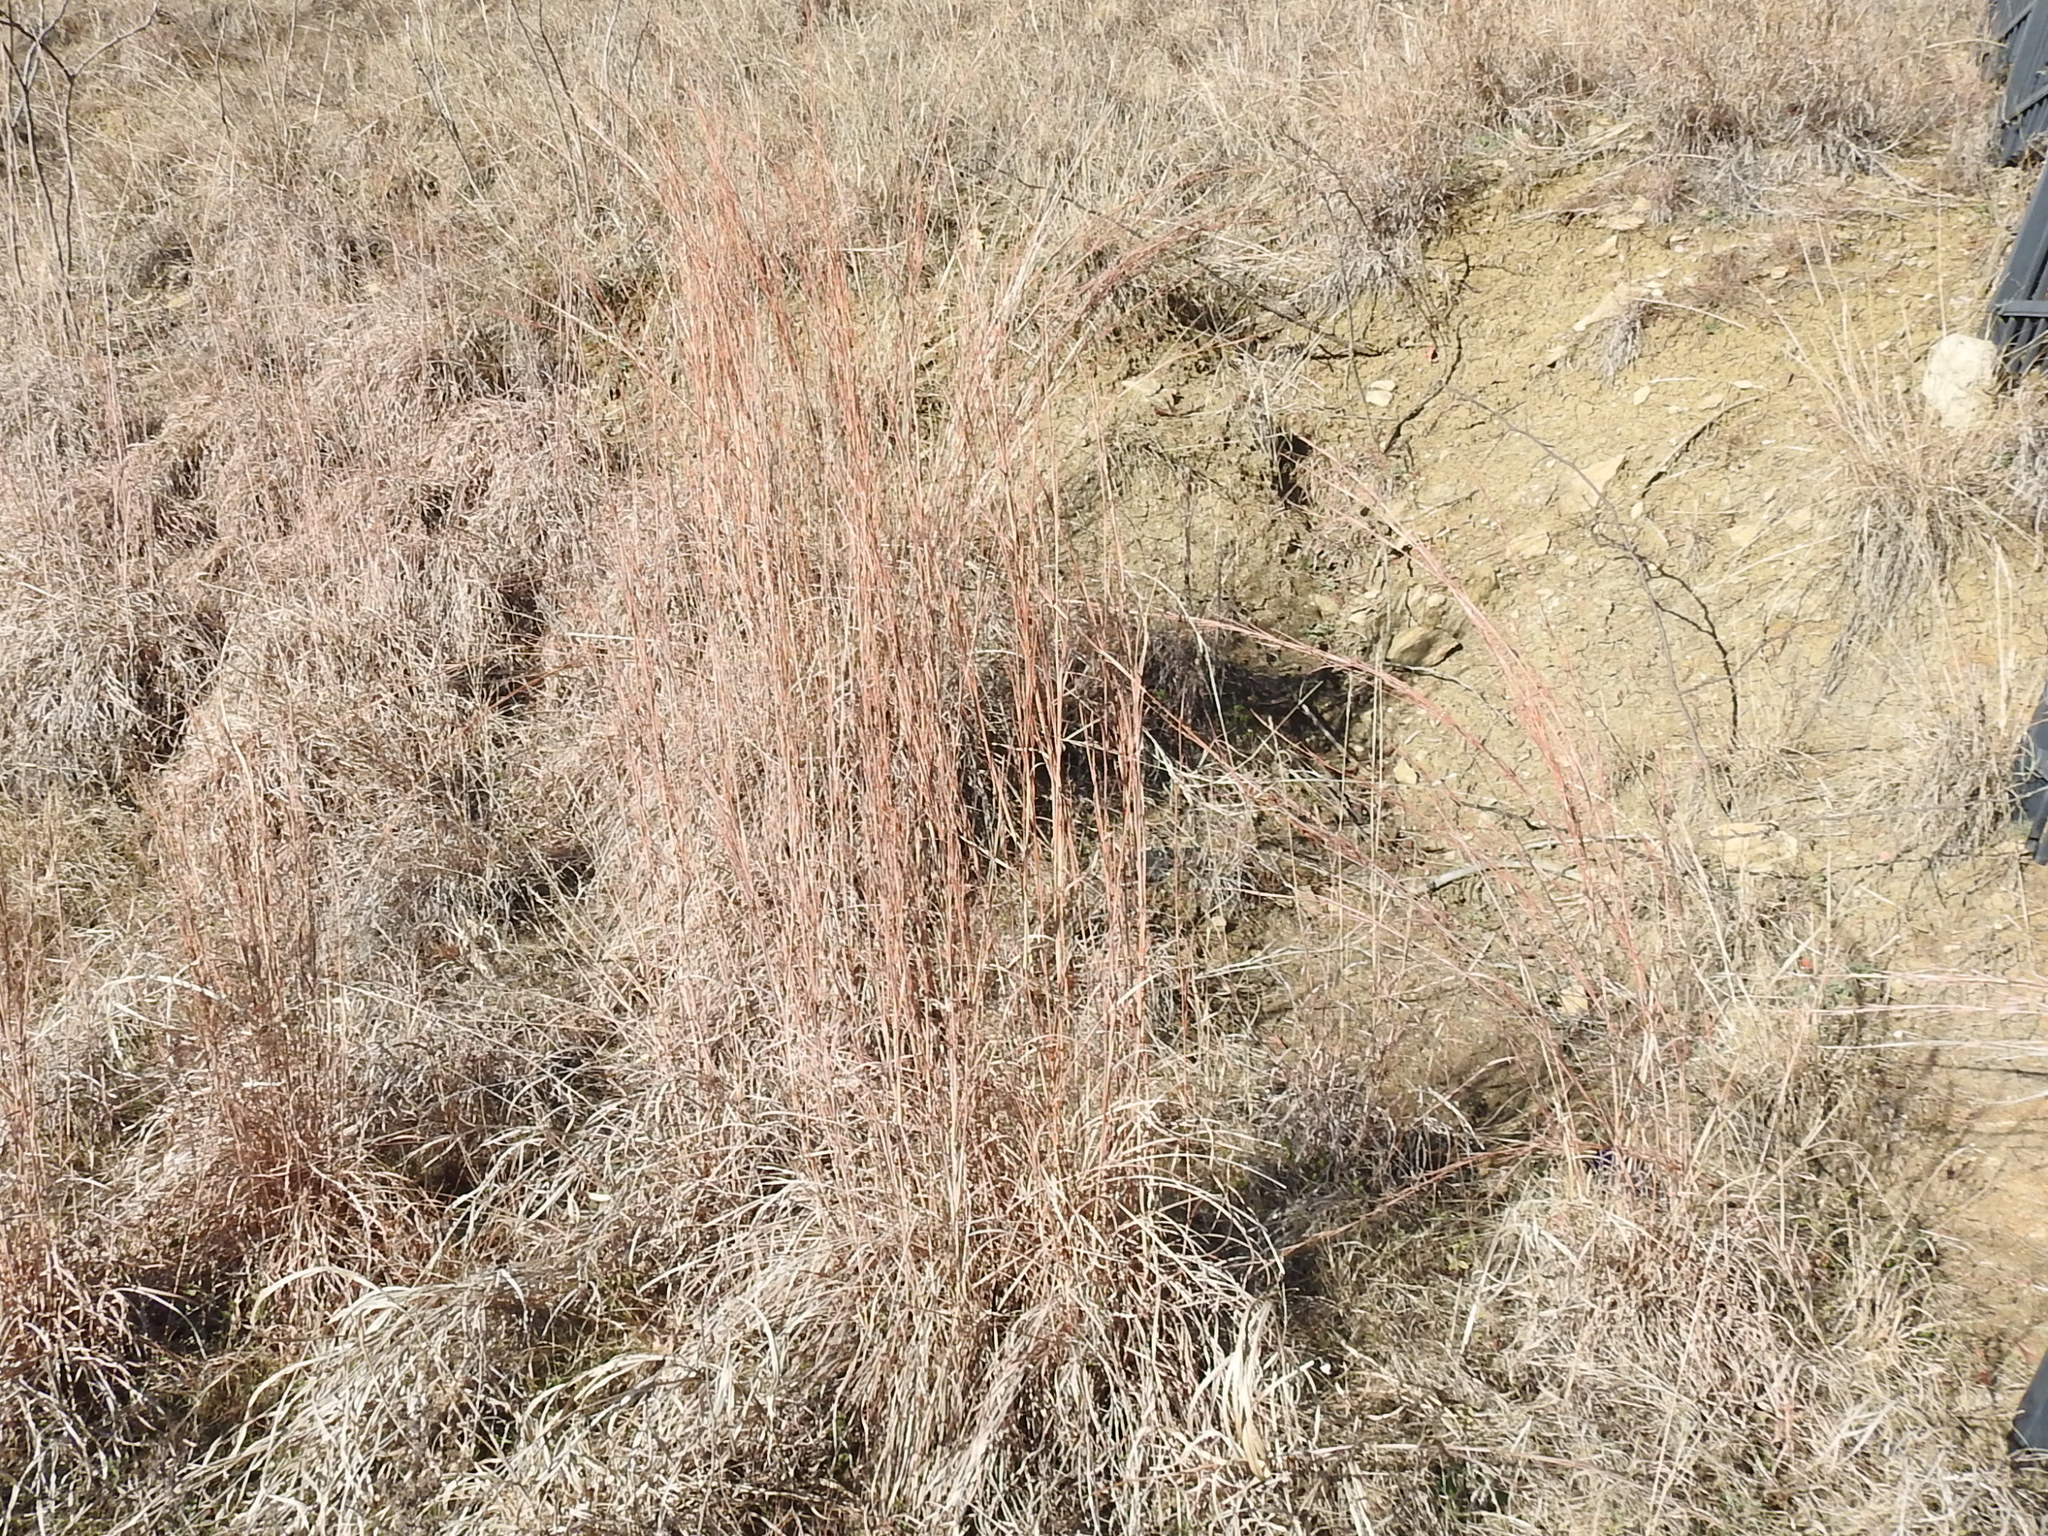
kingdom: Plantae
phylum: Tracheophyta
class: Liliopsida
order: Poales
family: Poaceae
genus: Schizachyrium
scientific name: Schizachyrium scoparium
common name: Little bluestem
